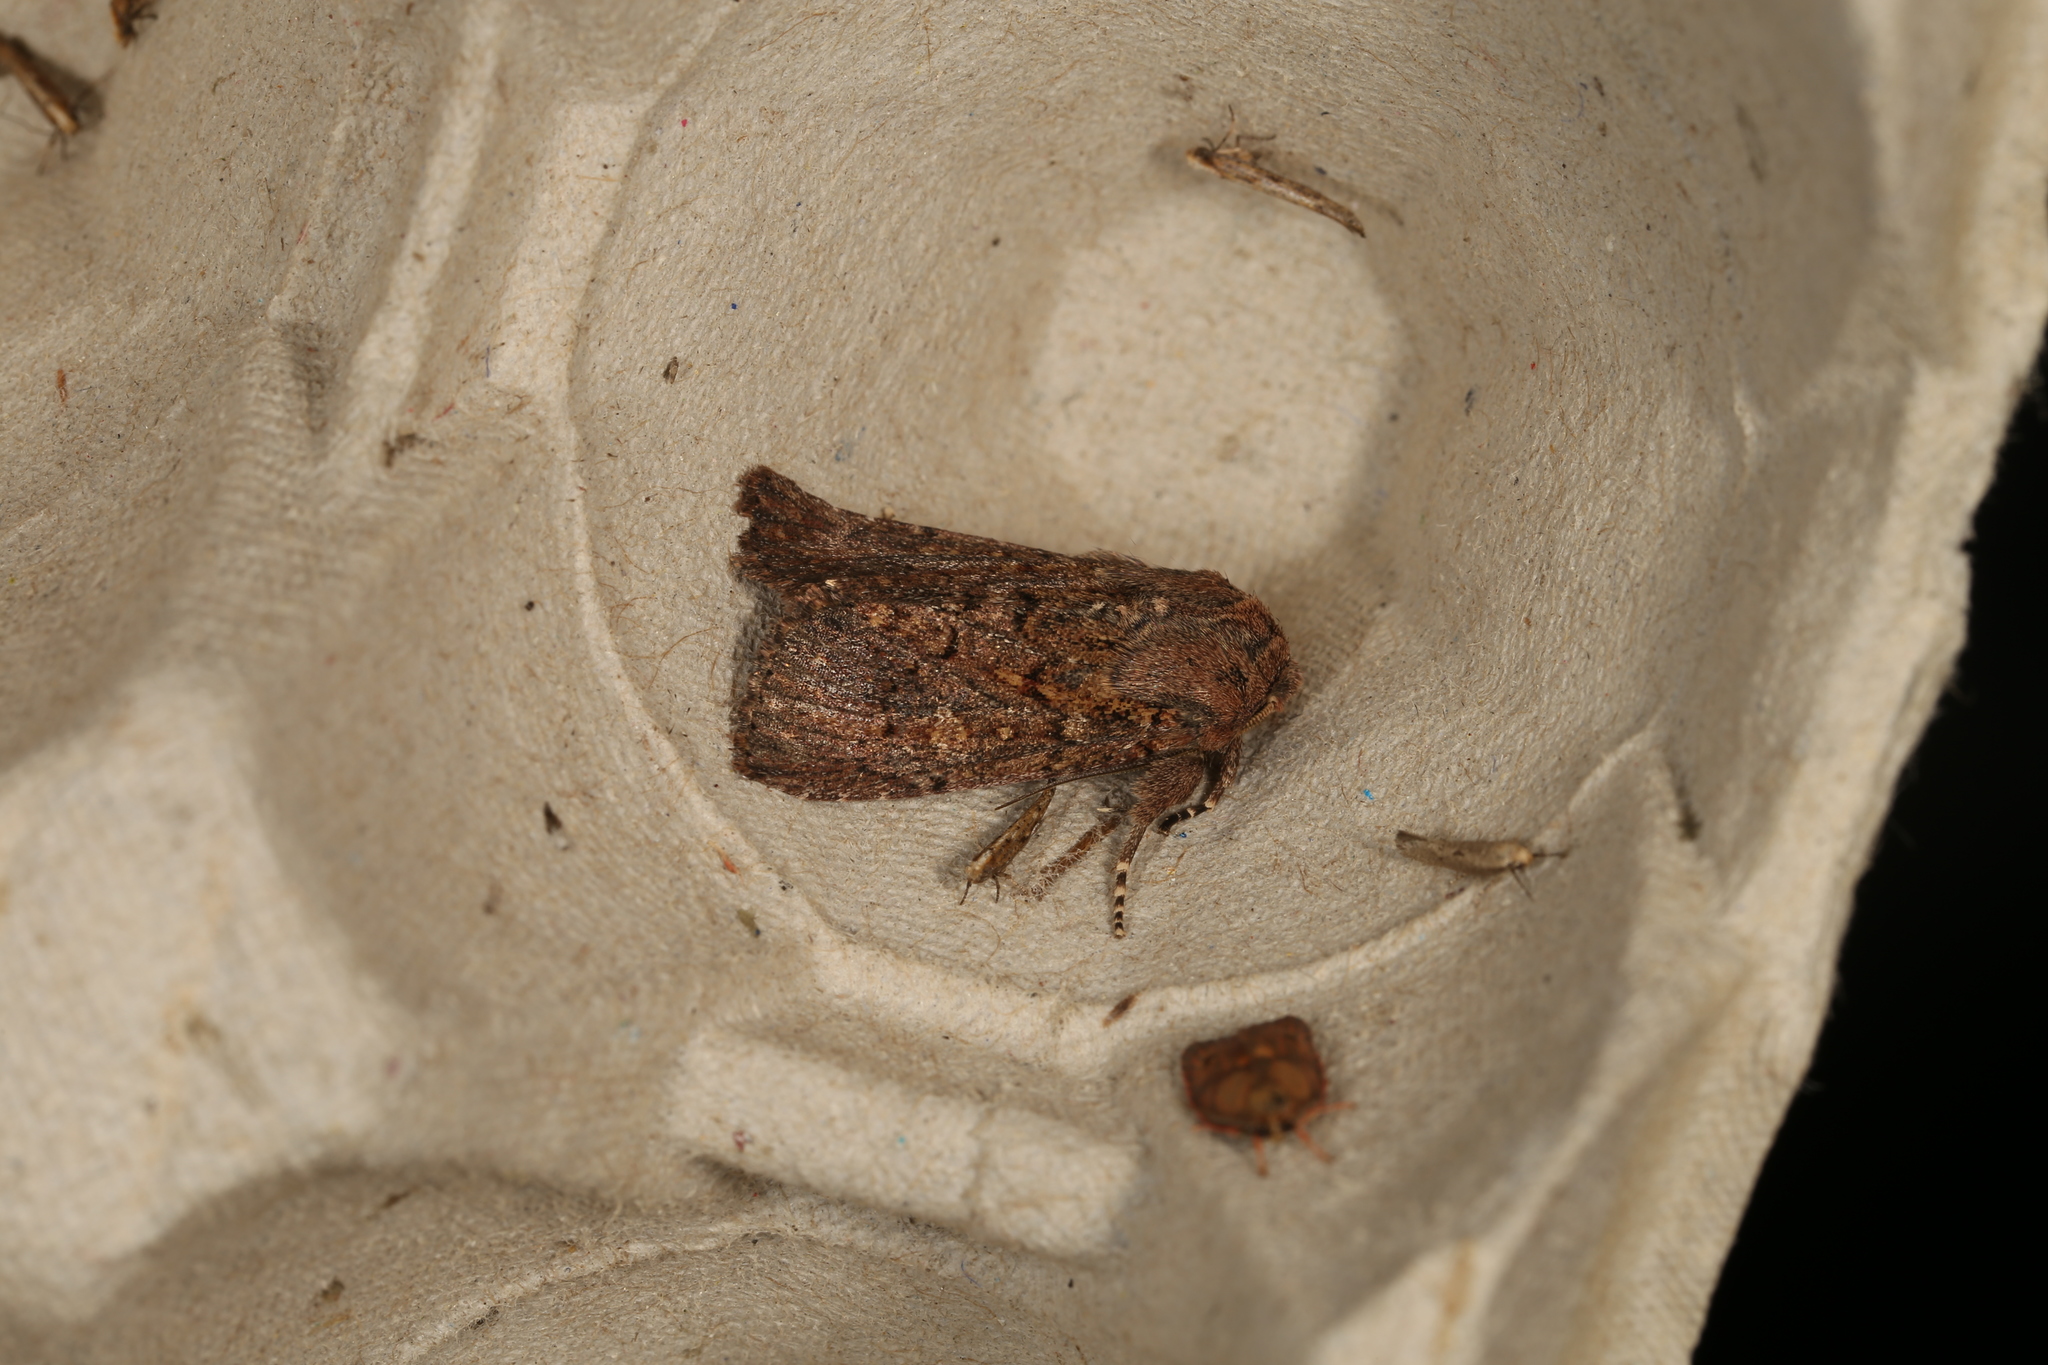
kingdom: Animalia
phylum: Arthropoda
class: Insecta
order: Lepidoptera
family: Noctuidae
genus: Dasygaster
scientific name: Dasygaster padockina
